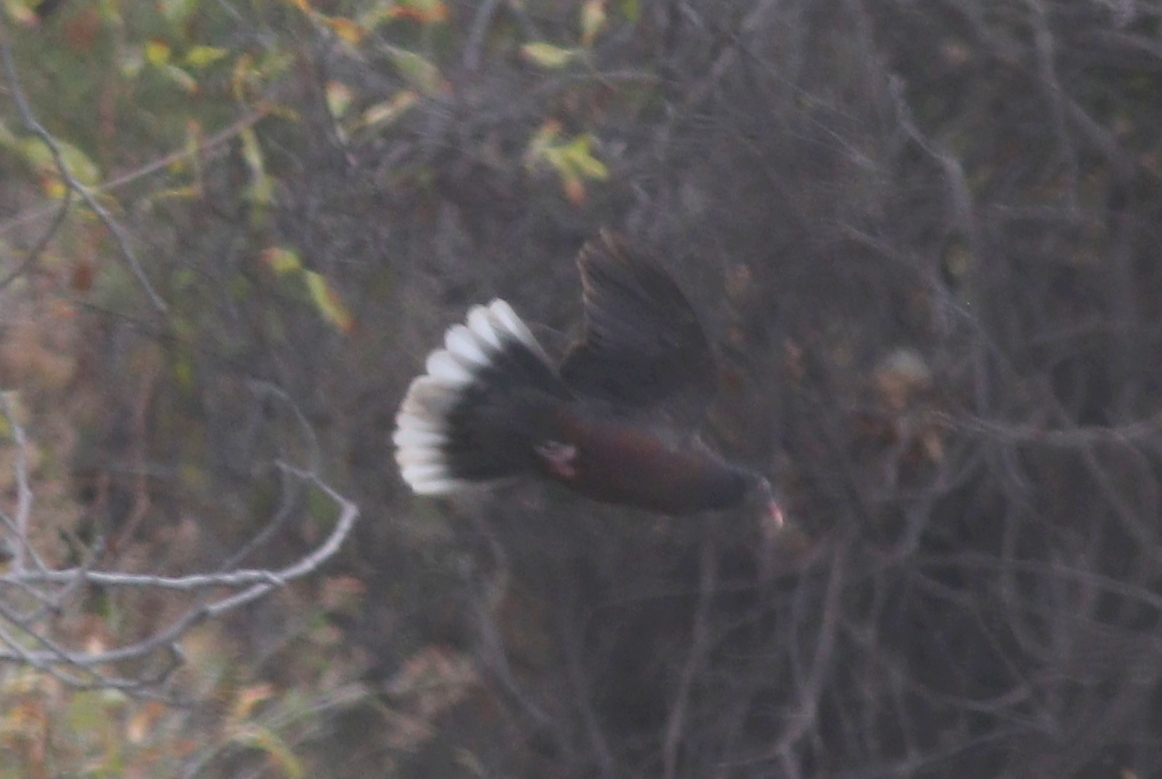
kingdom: Animalia
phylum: Chordata
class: Aves
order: Columbiformes
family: Columbidae
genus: Columba
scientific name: Columba junoniae
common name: Laurel pigeon
